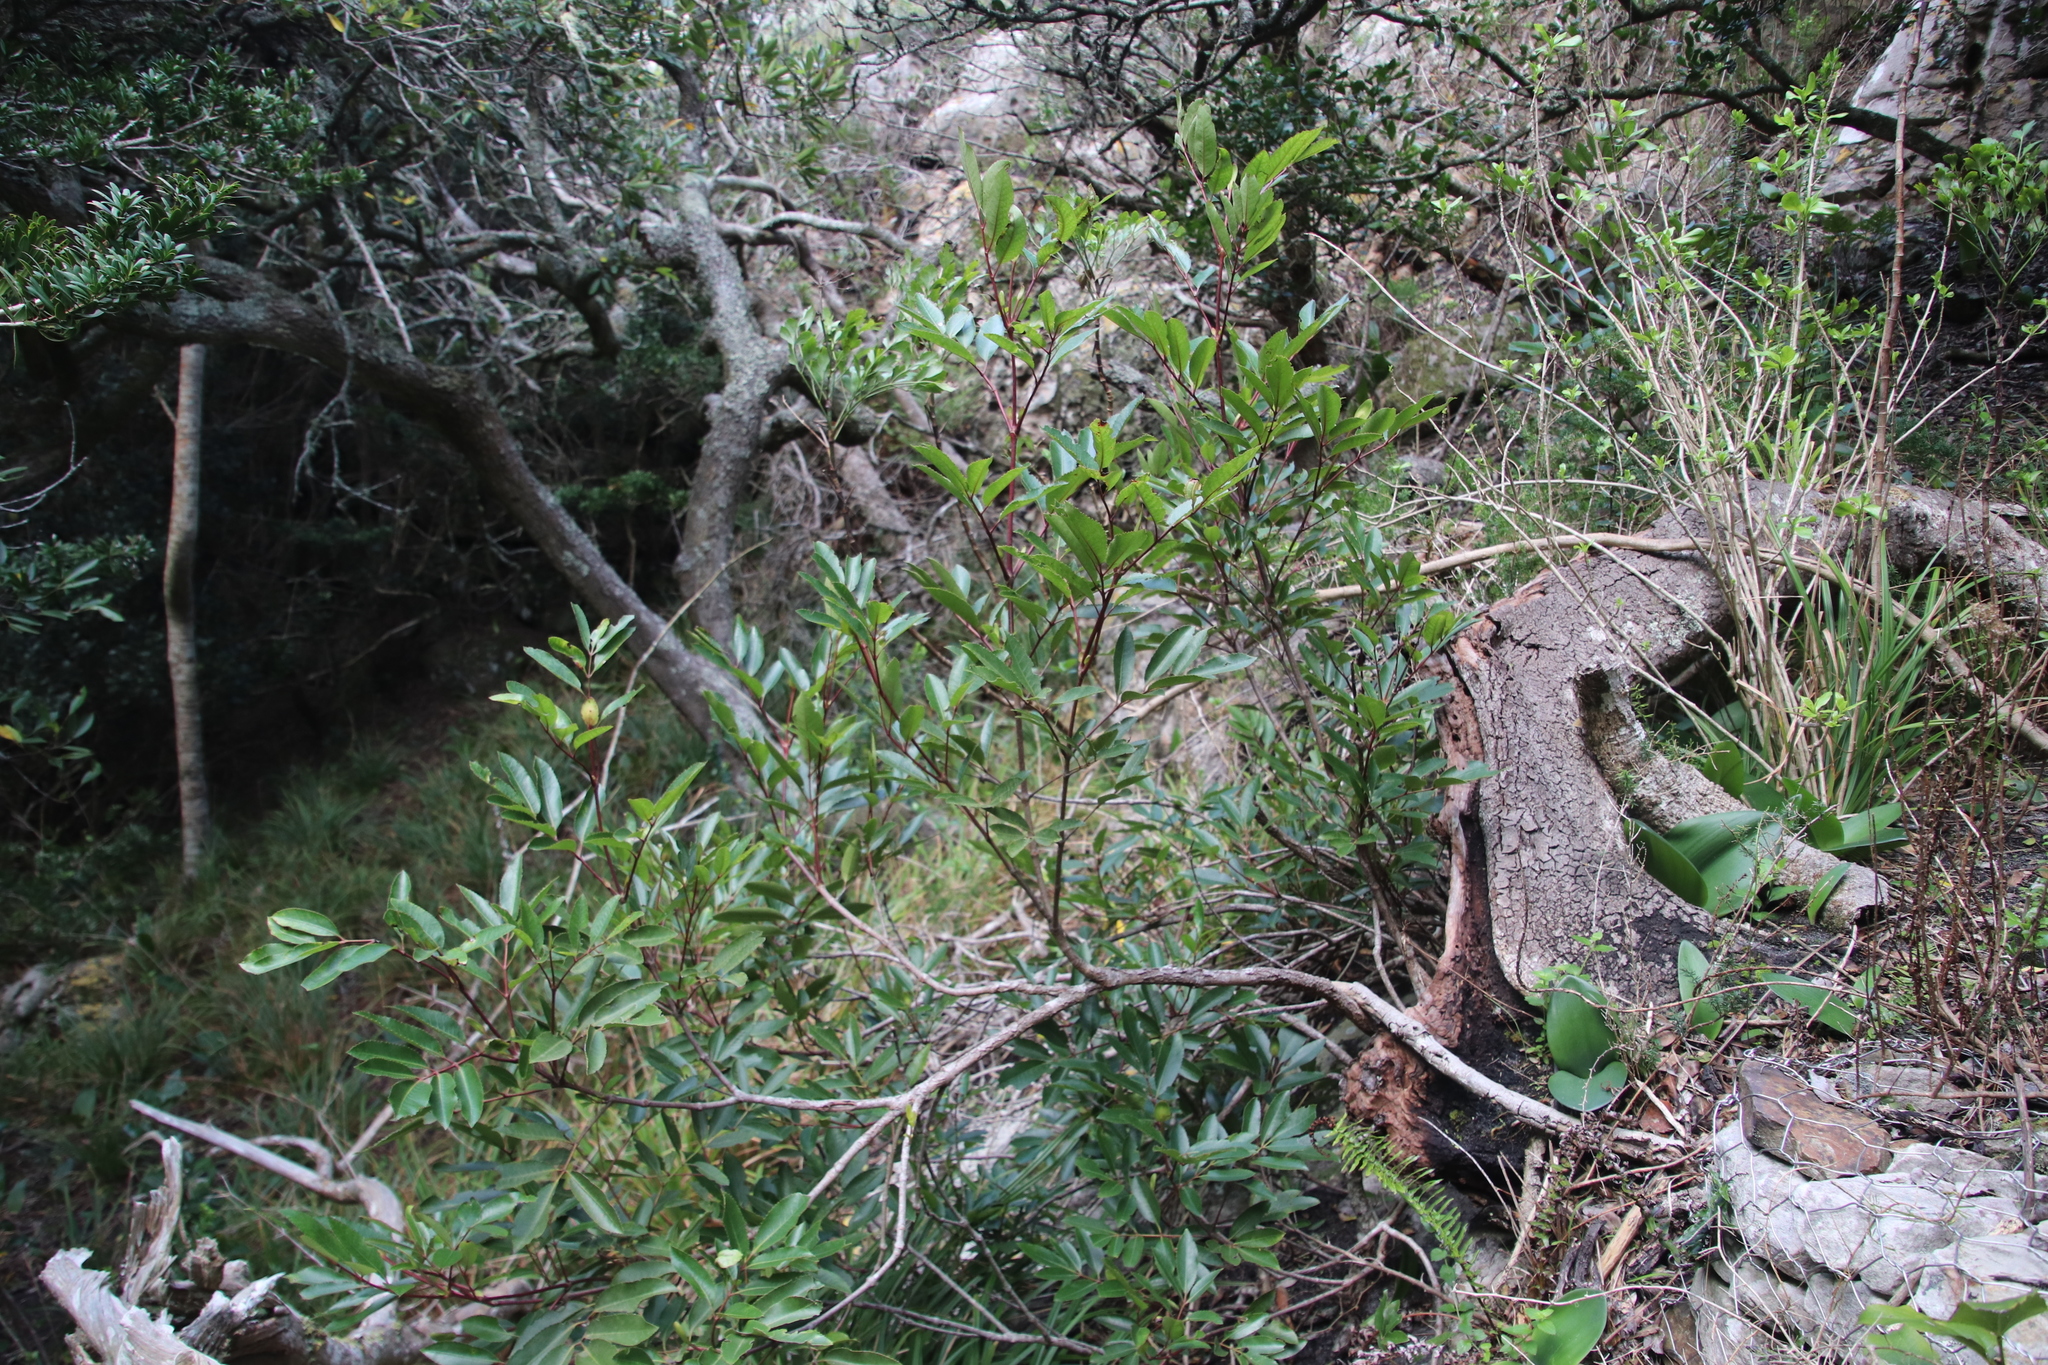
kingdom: Plantae
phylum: Tracheophyta
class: Magnoliopsida
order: Oxalidales
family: Cunoniaceae
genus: Cunonia
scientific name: Cunonia capensis
